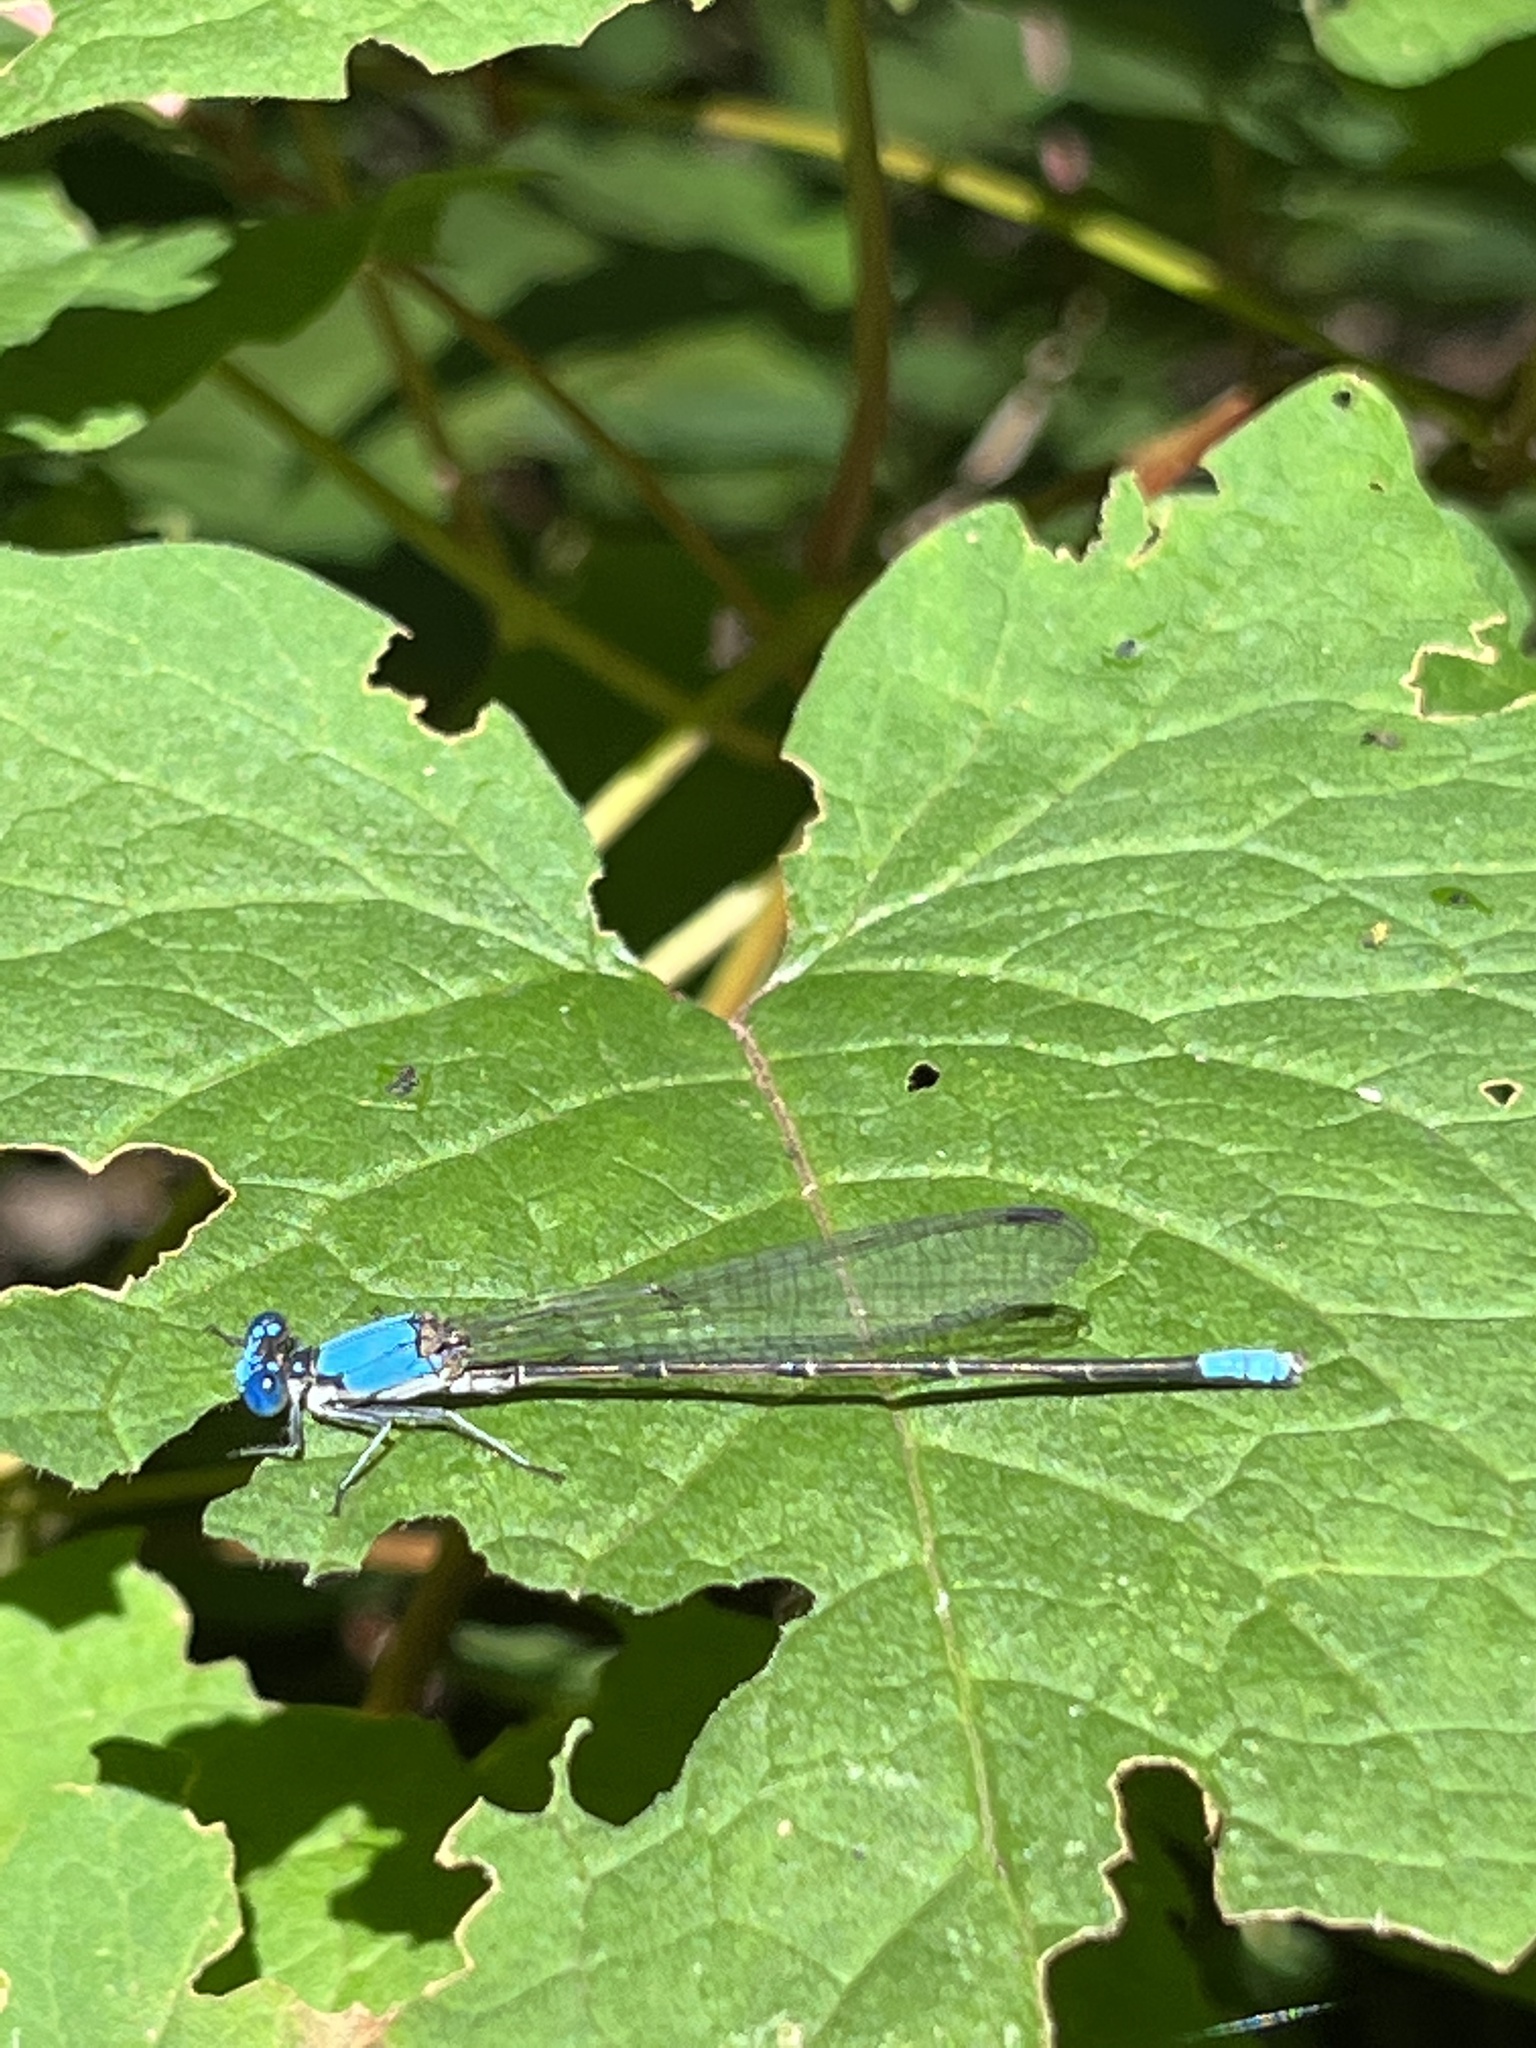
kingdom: Animalia
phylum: Arthropoda
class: Insecta
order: Odonata
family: Coenagrionidae
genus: Argia
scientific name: Argia apicalis
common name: Blue-fronted dancer
